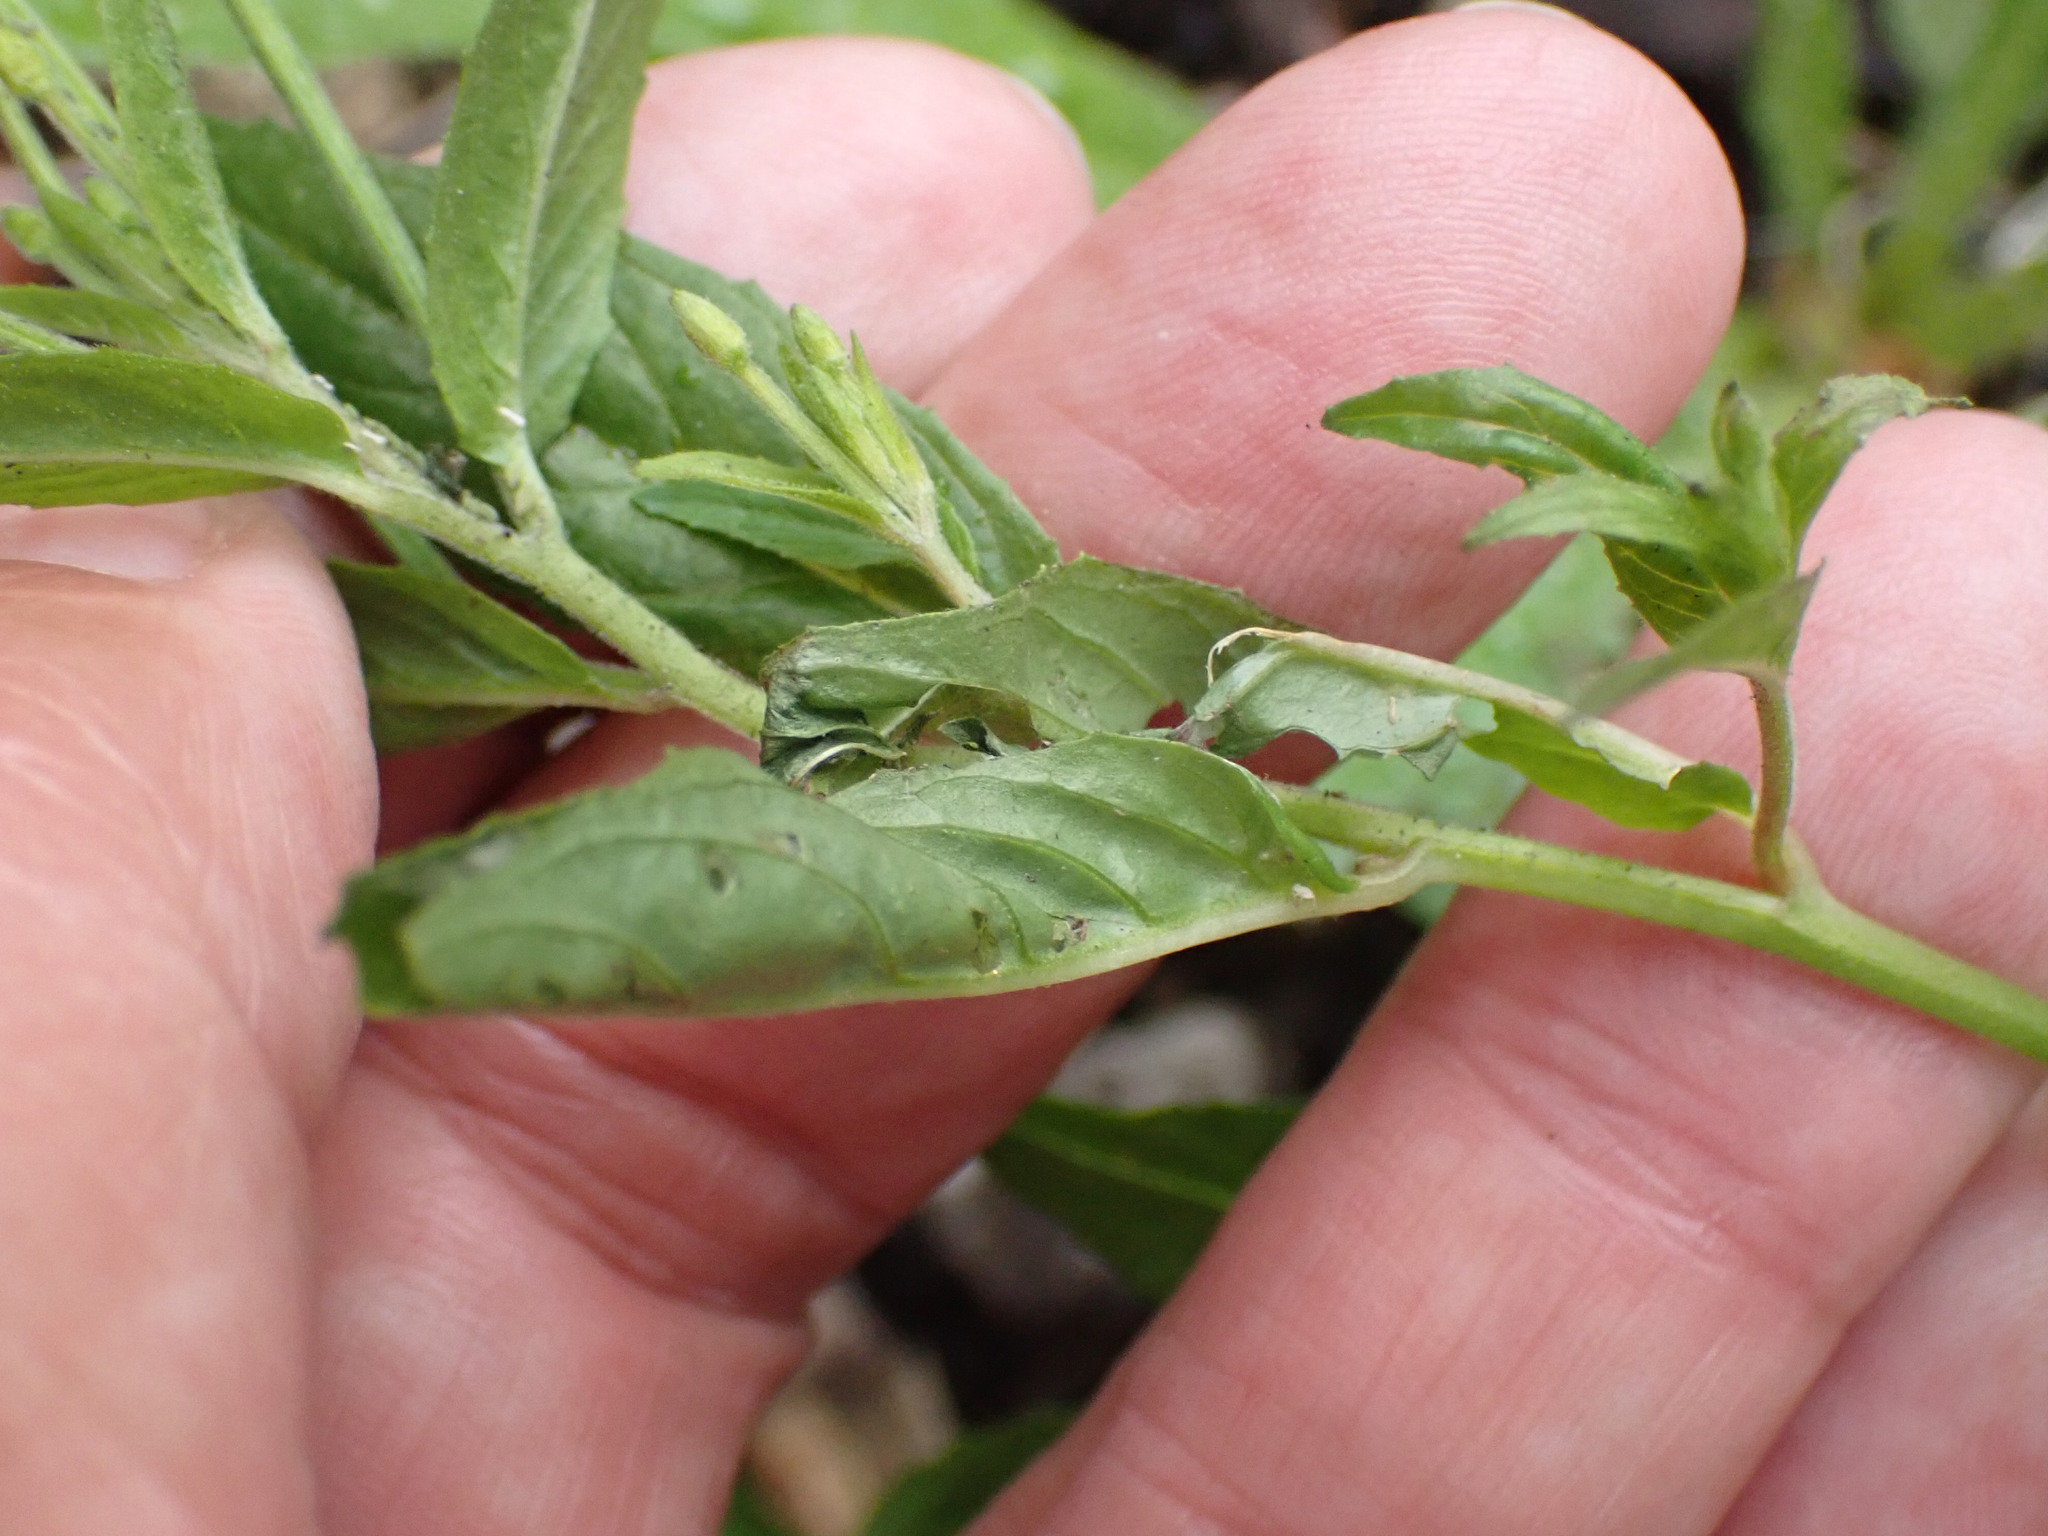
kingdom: Plantae
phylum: Tracheophyta
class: Magnoliopsida
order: Myrtales
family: Onagraceae
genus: Epilobium
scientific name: Epilobium tetragonum
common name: Square-stemmed willowherb
